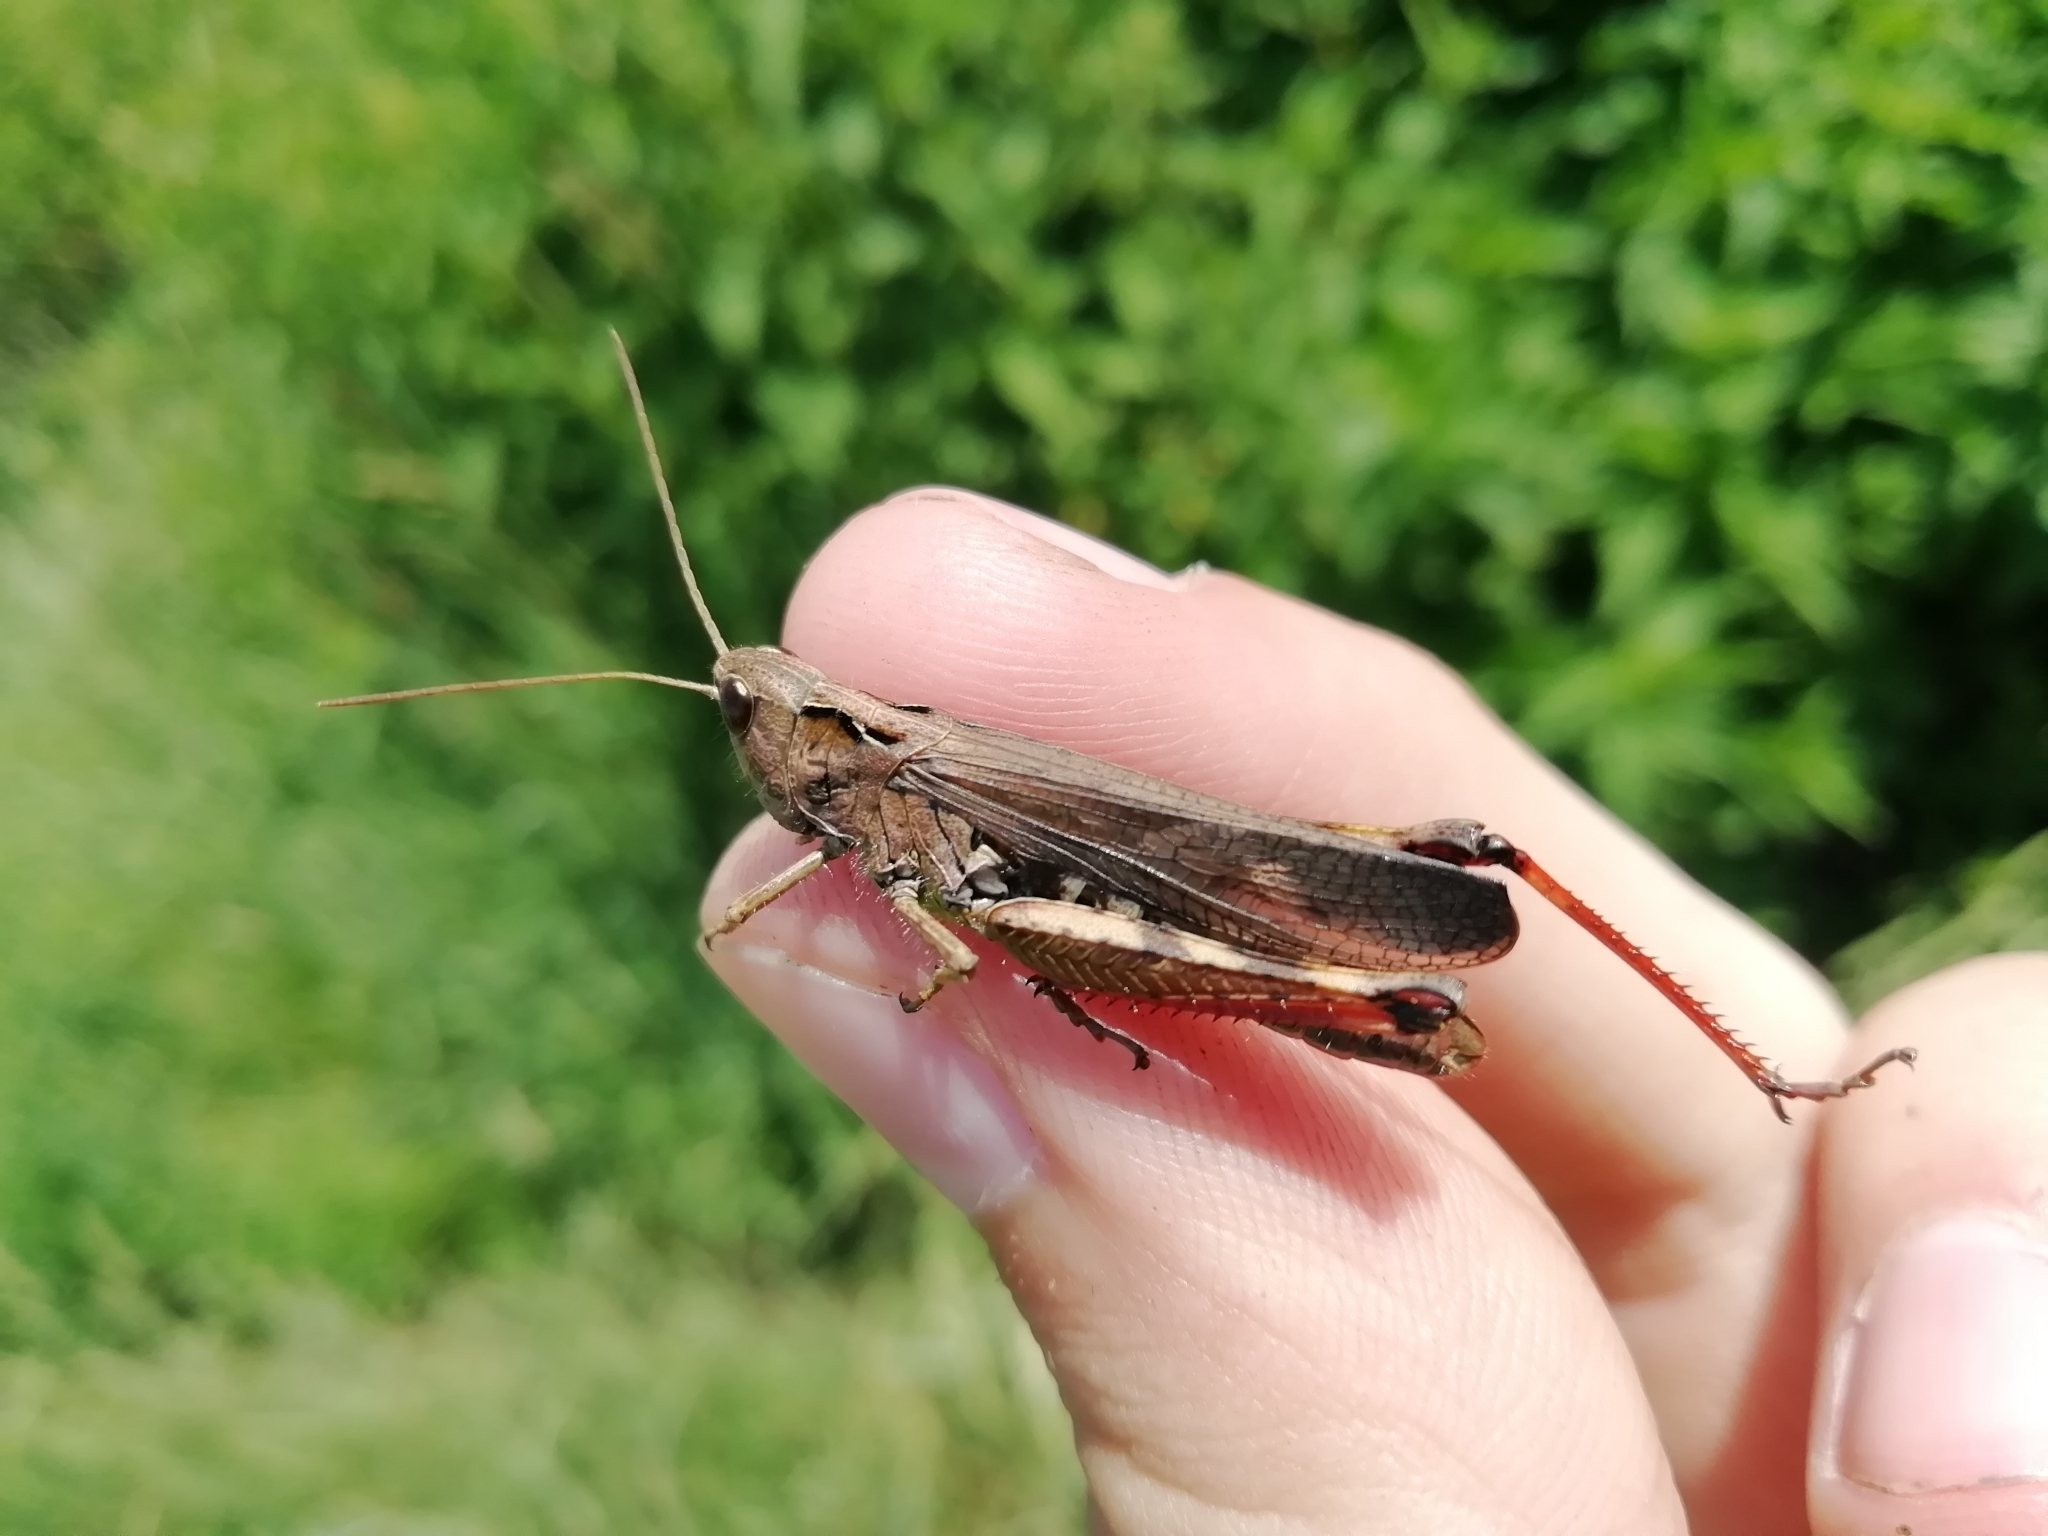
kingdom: Animalia
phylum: Arthropoda
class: Insecta
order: Orthoptera
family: Acrididae
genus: Megaulacobothrus
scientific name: Megaulacobothrus aethalinus
